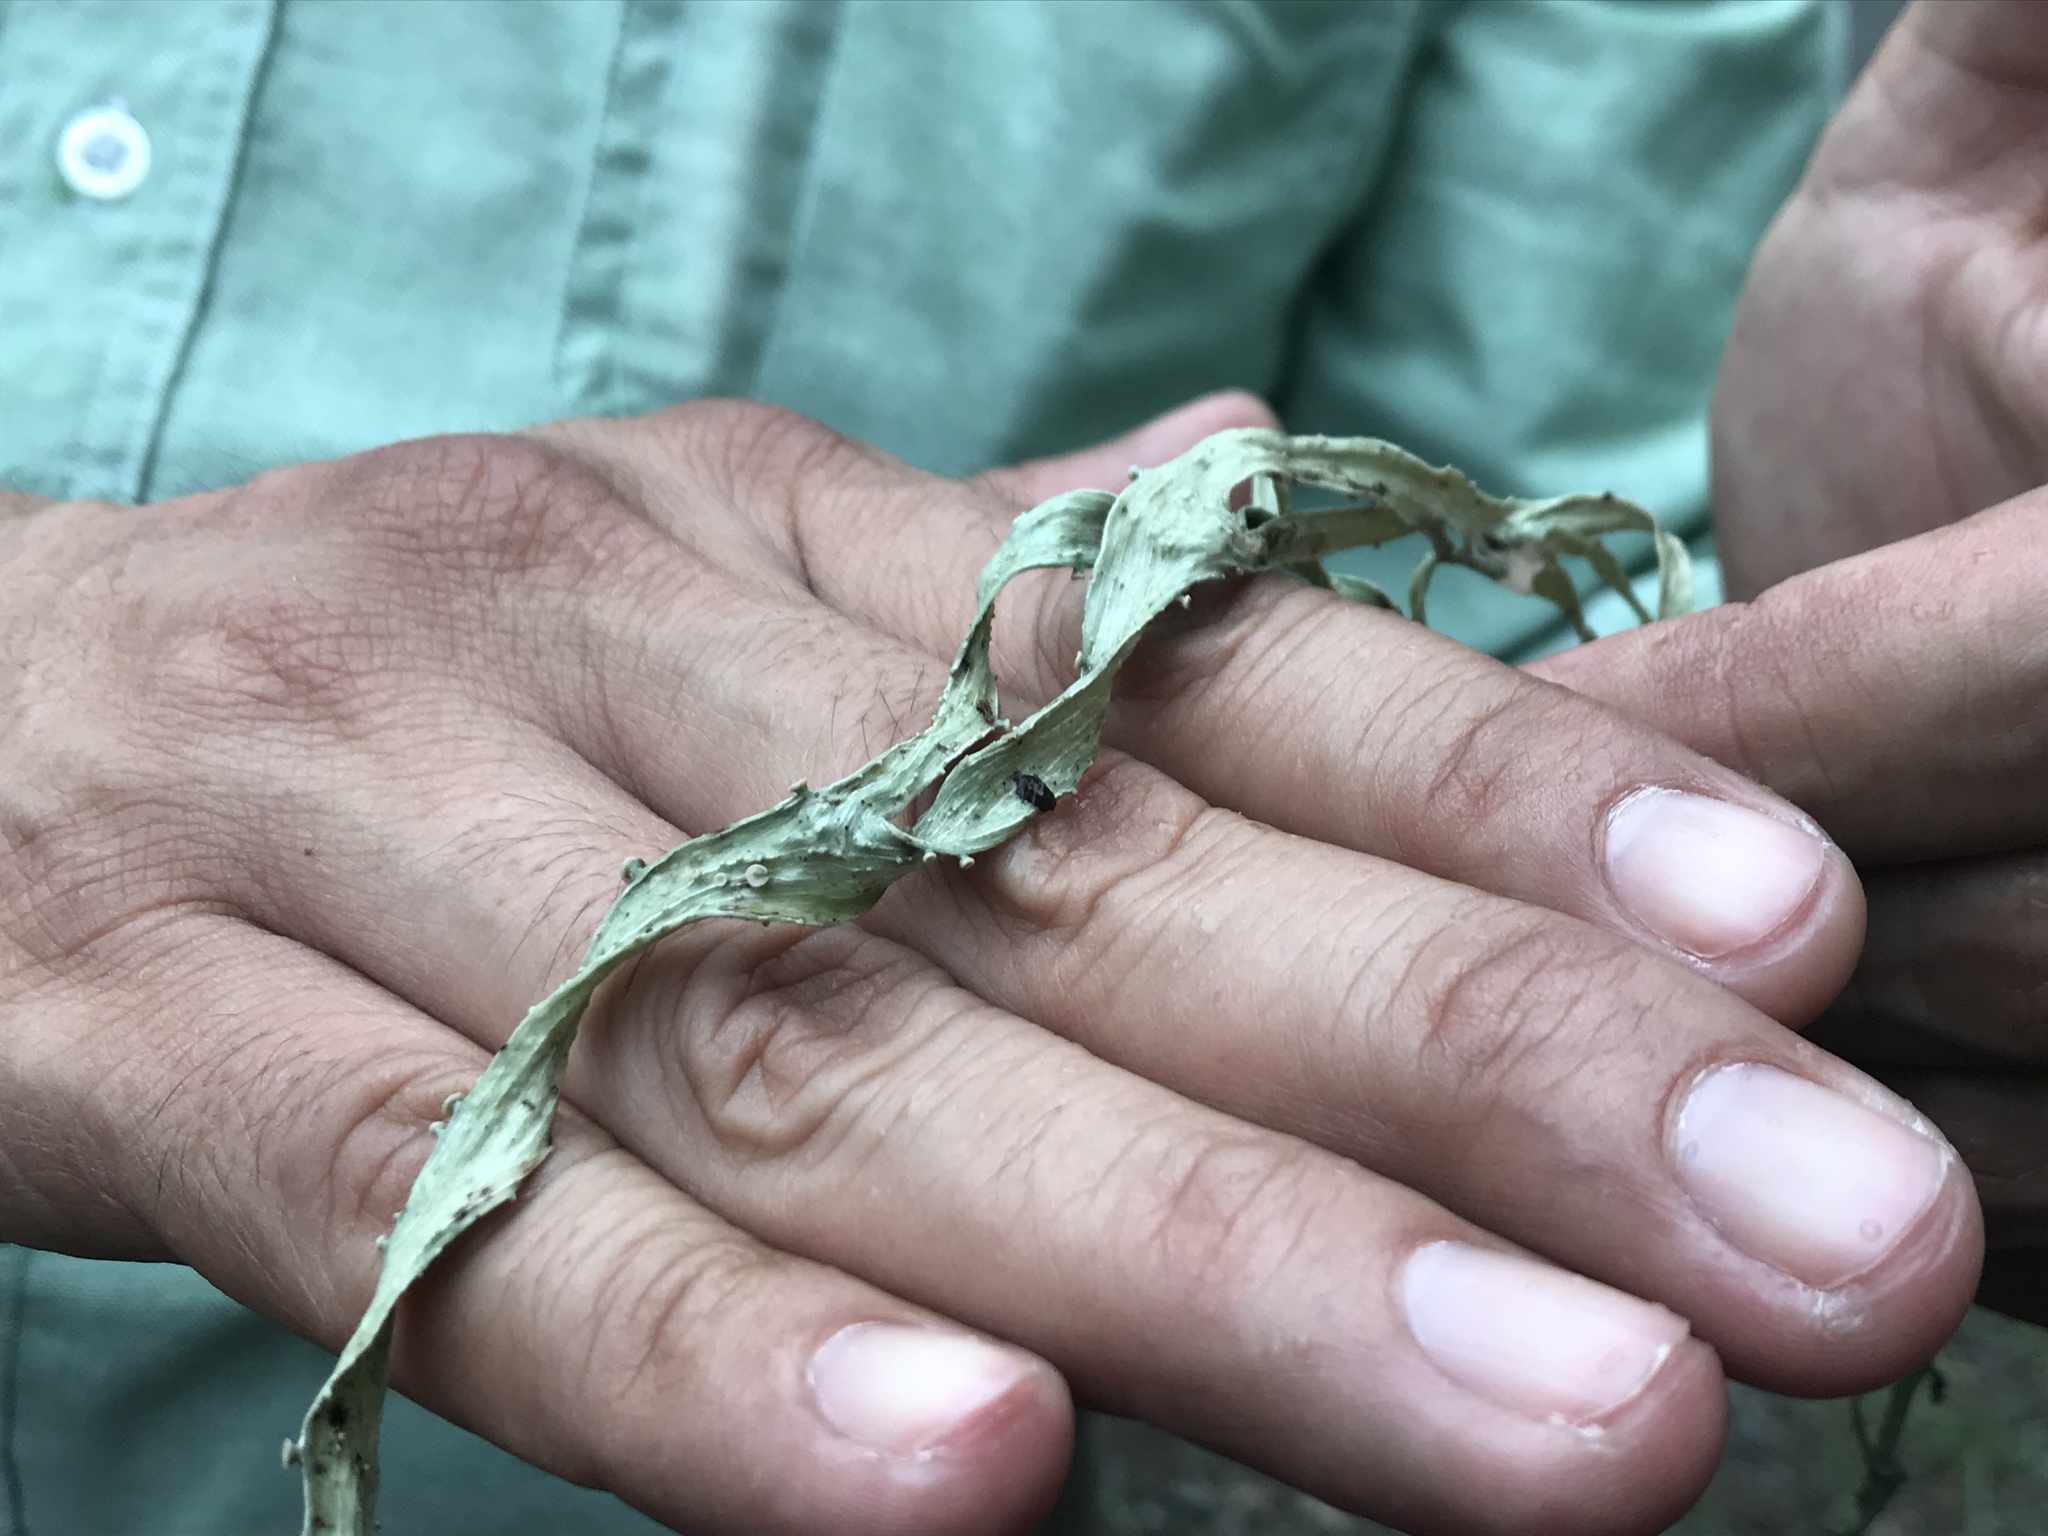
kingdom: Fungi
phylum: Ascomycota
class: Lecanoromycetes
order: Lecanorales
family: Ramalinaceae
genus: Ramalina
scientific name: Ramalina celastri
